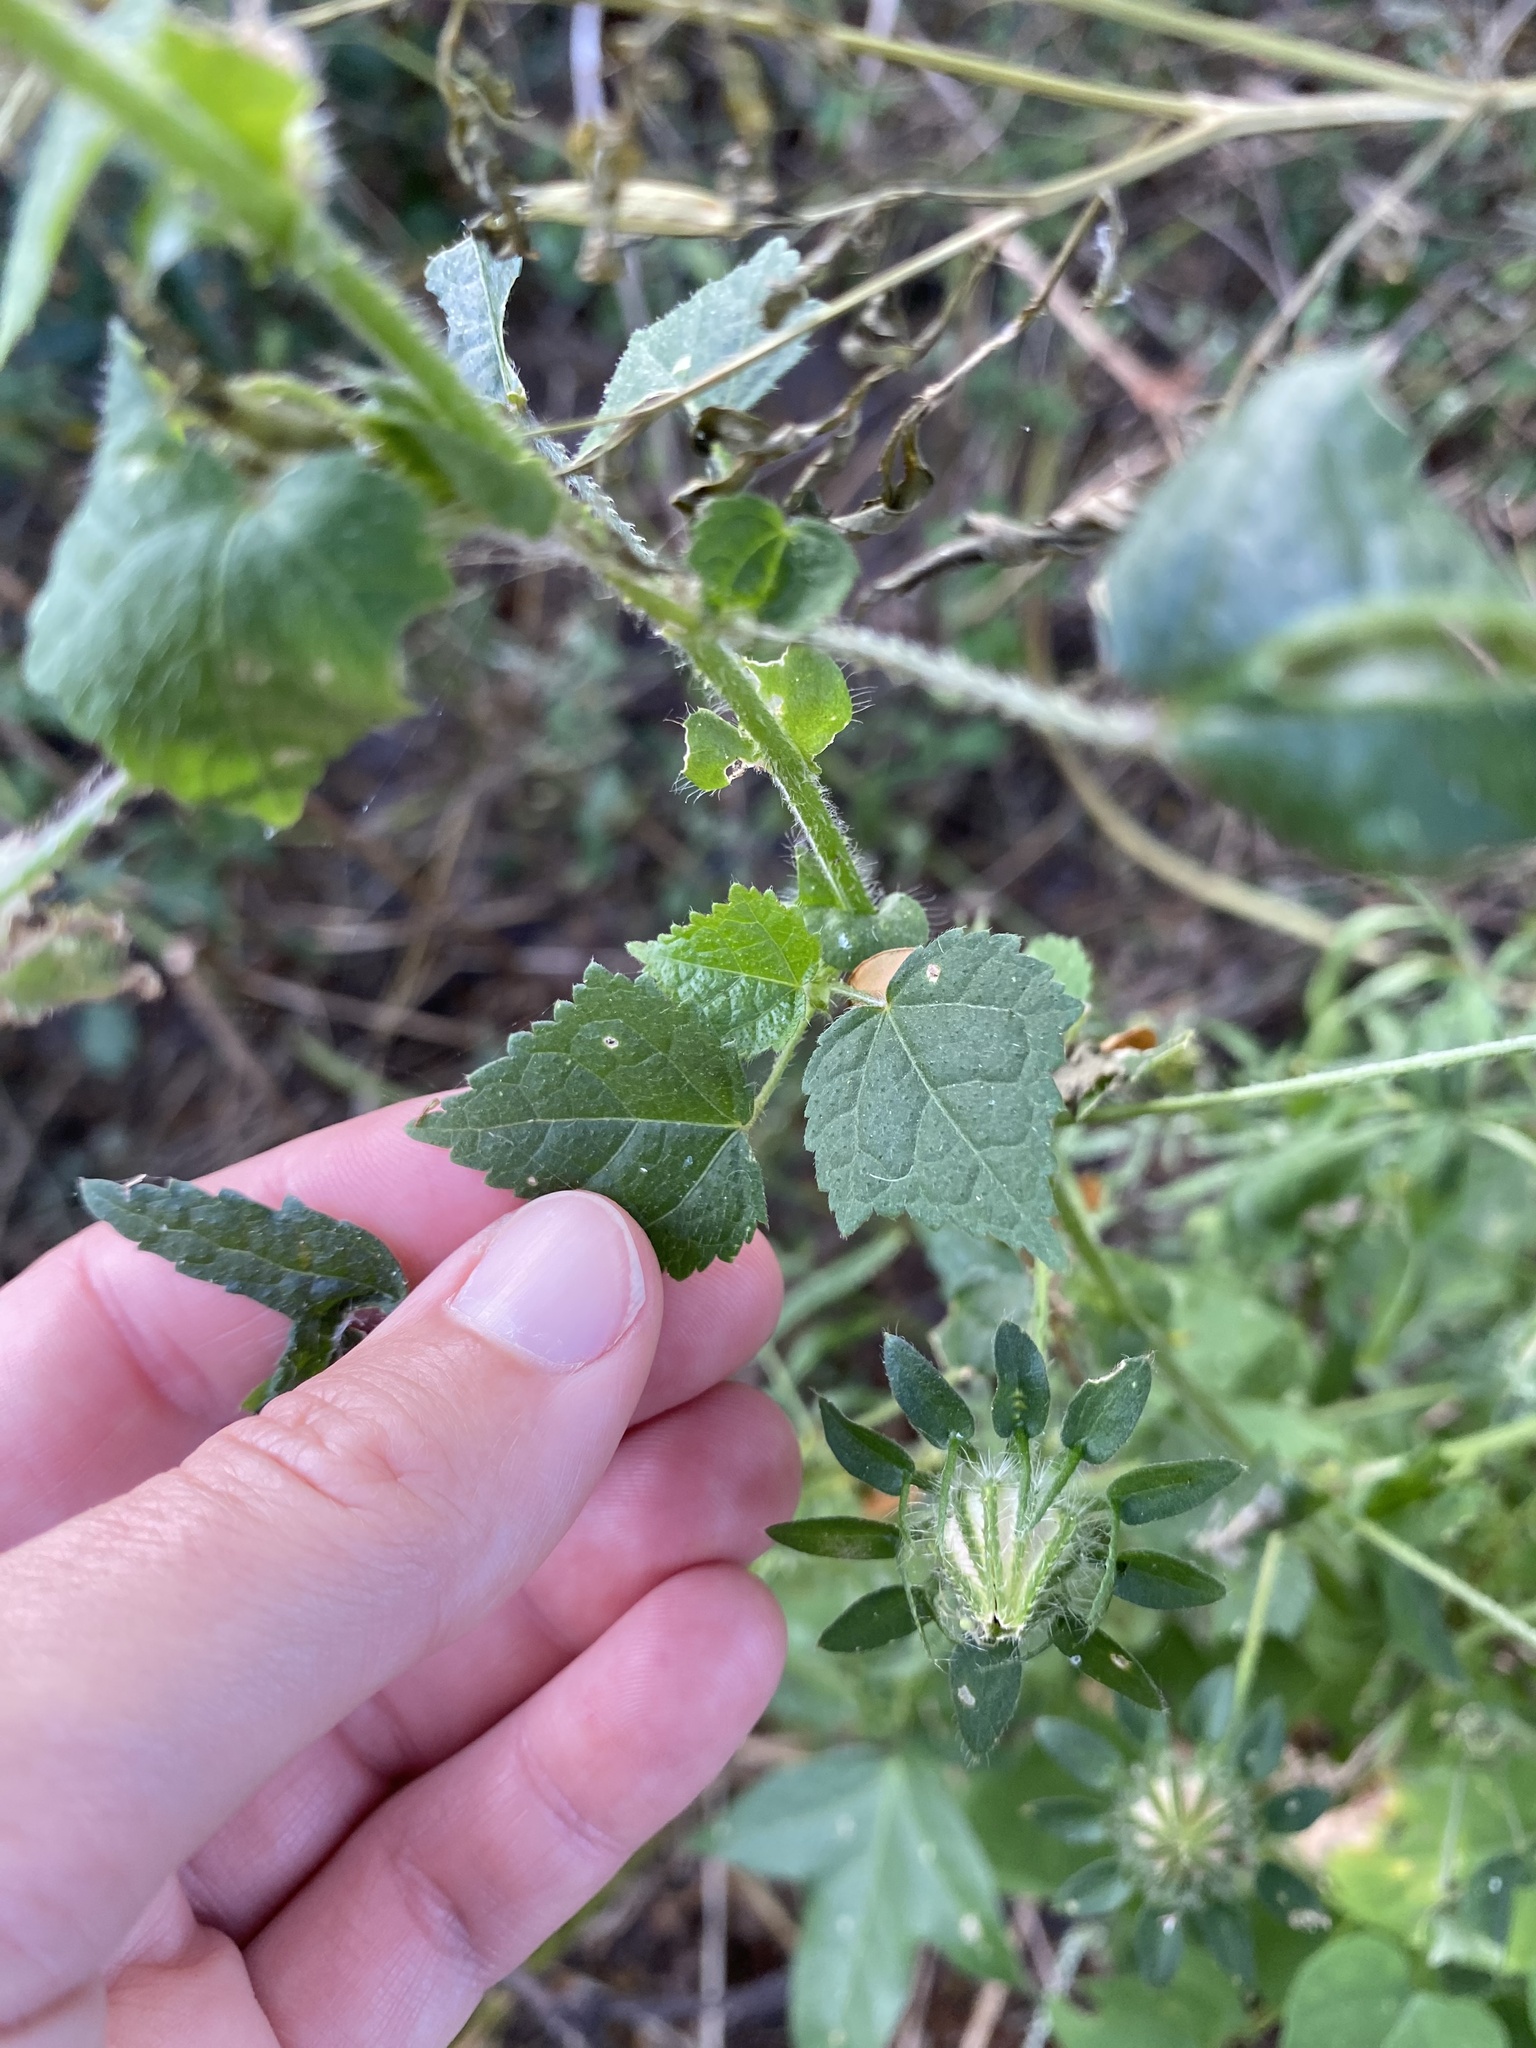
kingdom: Plantae
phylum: Tracheophyta
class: Magnoliopsida
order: Malvales
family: Malvaceae
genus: Hibiscus
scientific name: Hibiscus surattensis
